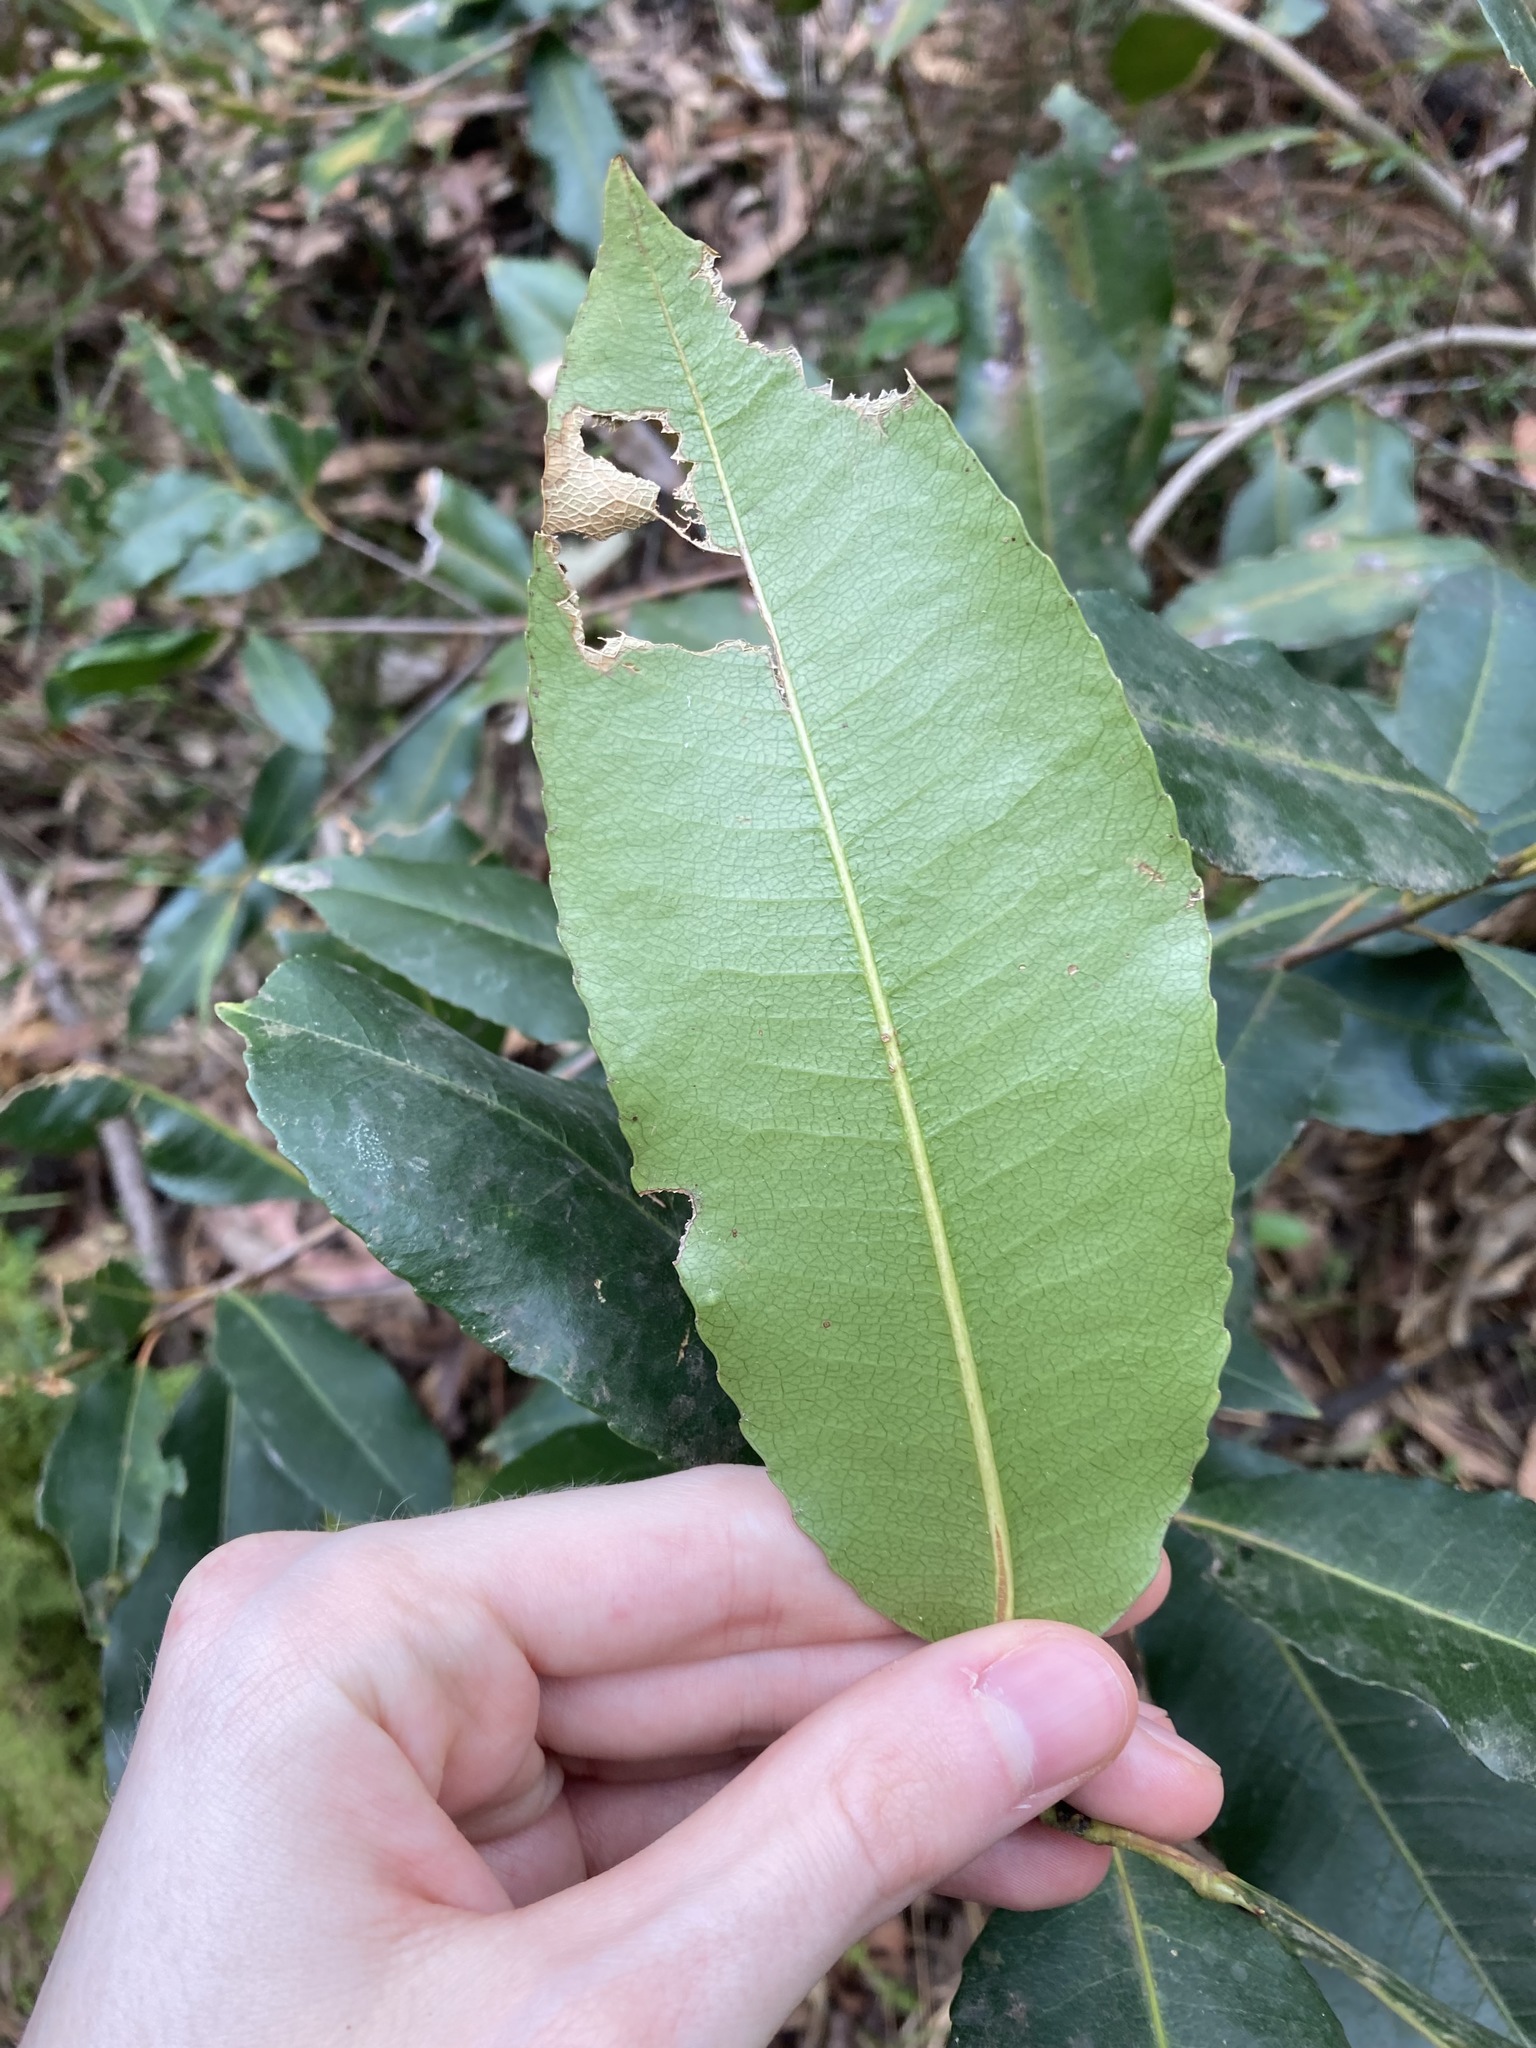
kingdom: Plantae
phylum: Tracheophyta
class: Magnoliopsida
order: Oxalidales
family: Cunoniaceae
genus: Ceratopetalum
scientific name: Ceratopetalum apetalum
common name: Scented satinwood
